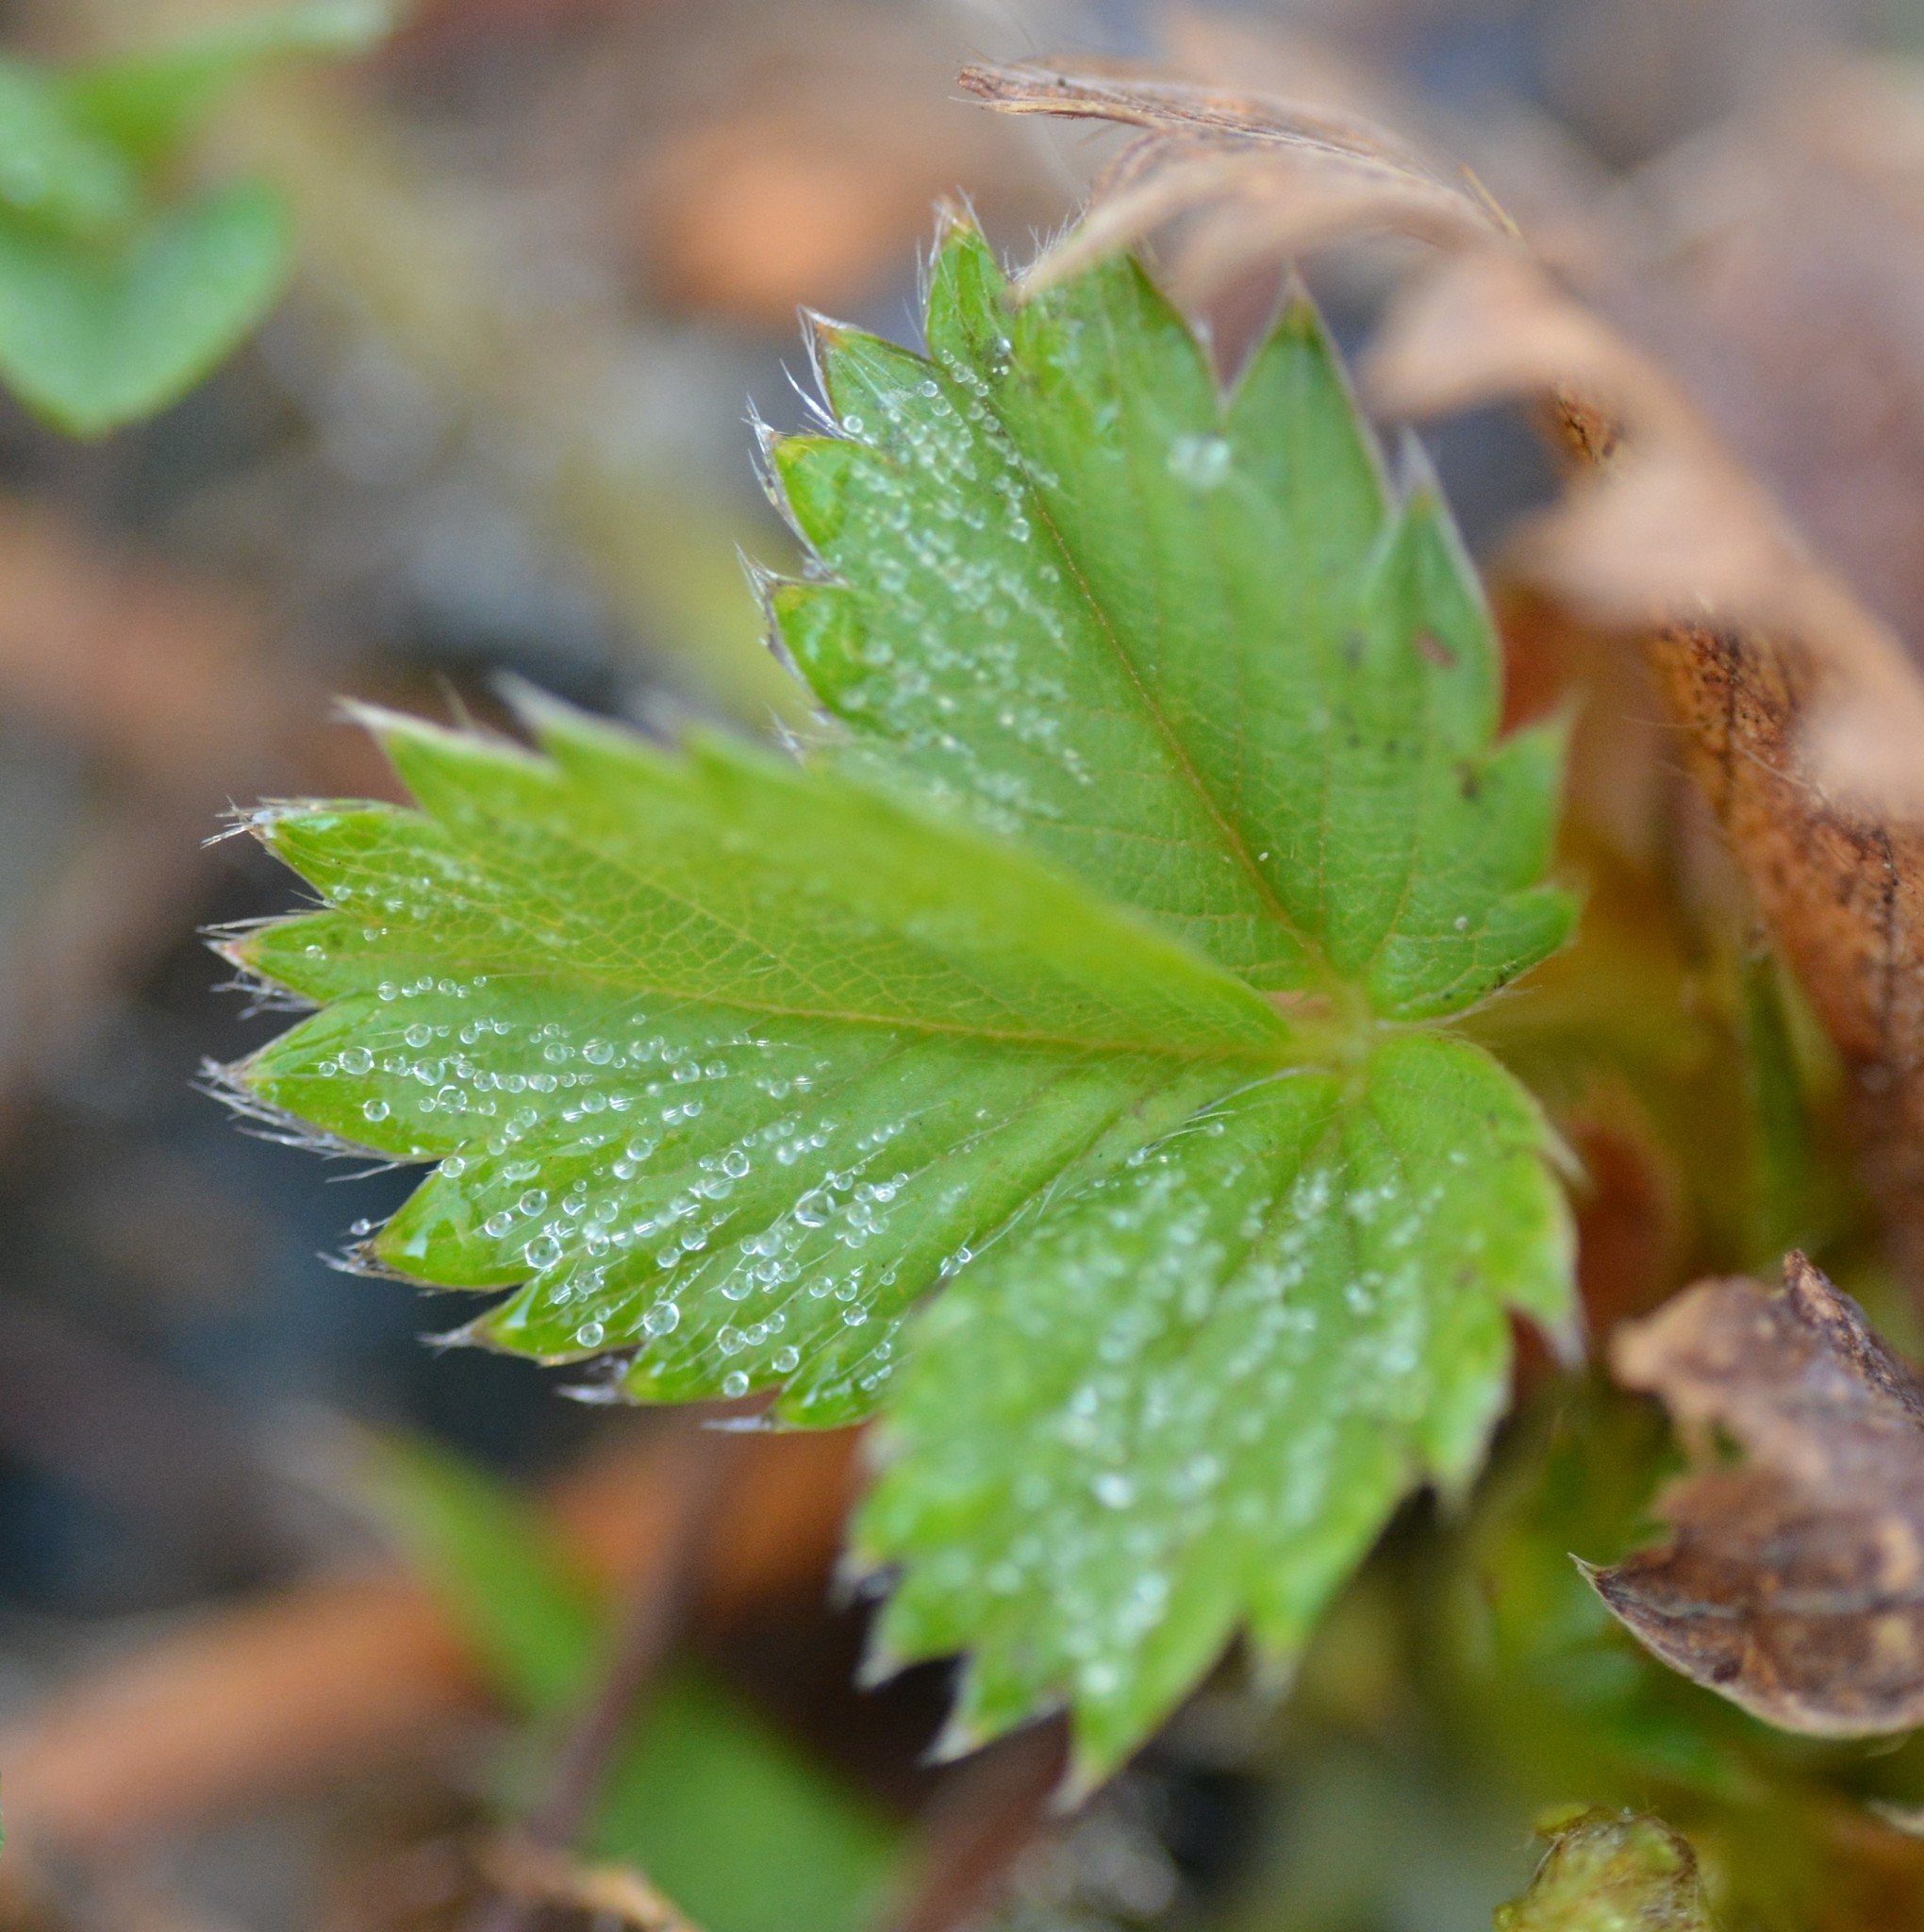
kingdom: Plantae
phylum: Tracheophyta
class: Magnoliopsida
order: Rosales
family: Rosaceae
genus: Fragaria
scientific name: Fragaria virginiana
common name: Thickleaved wild strawberry
